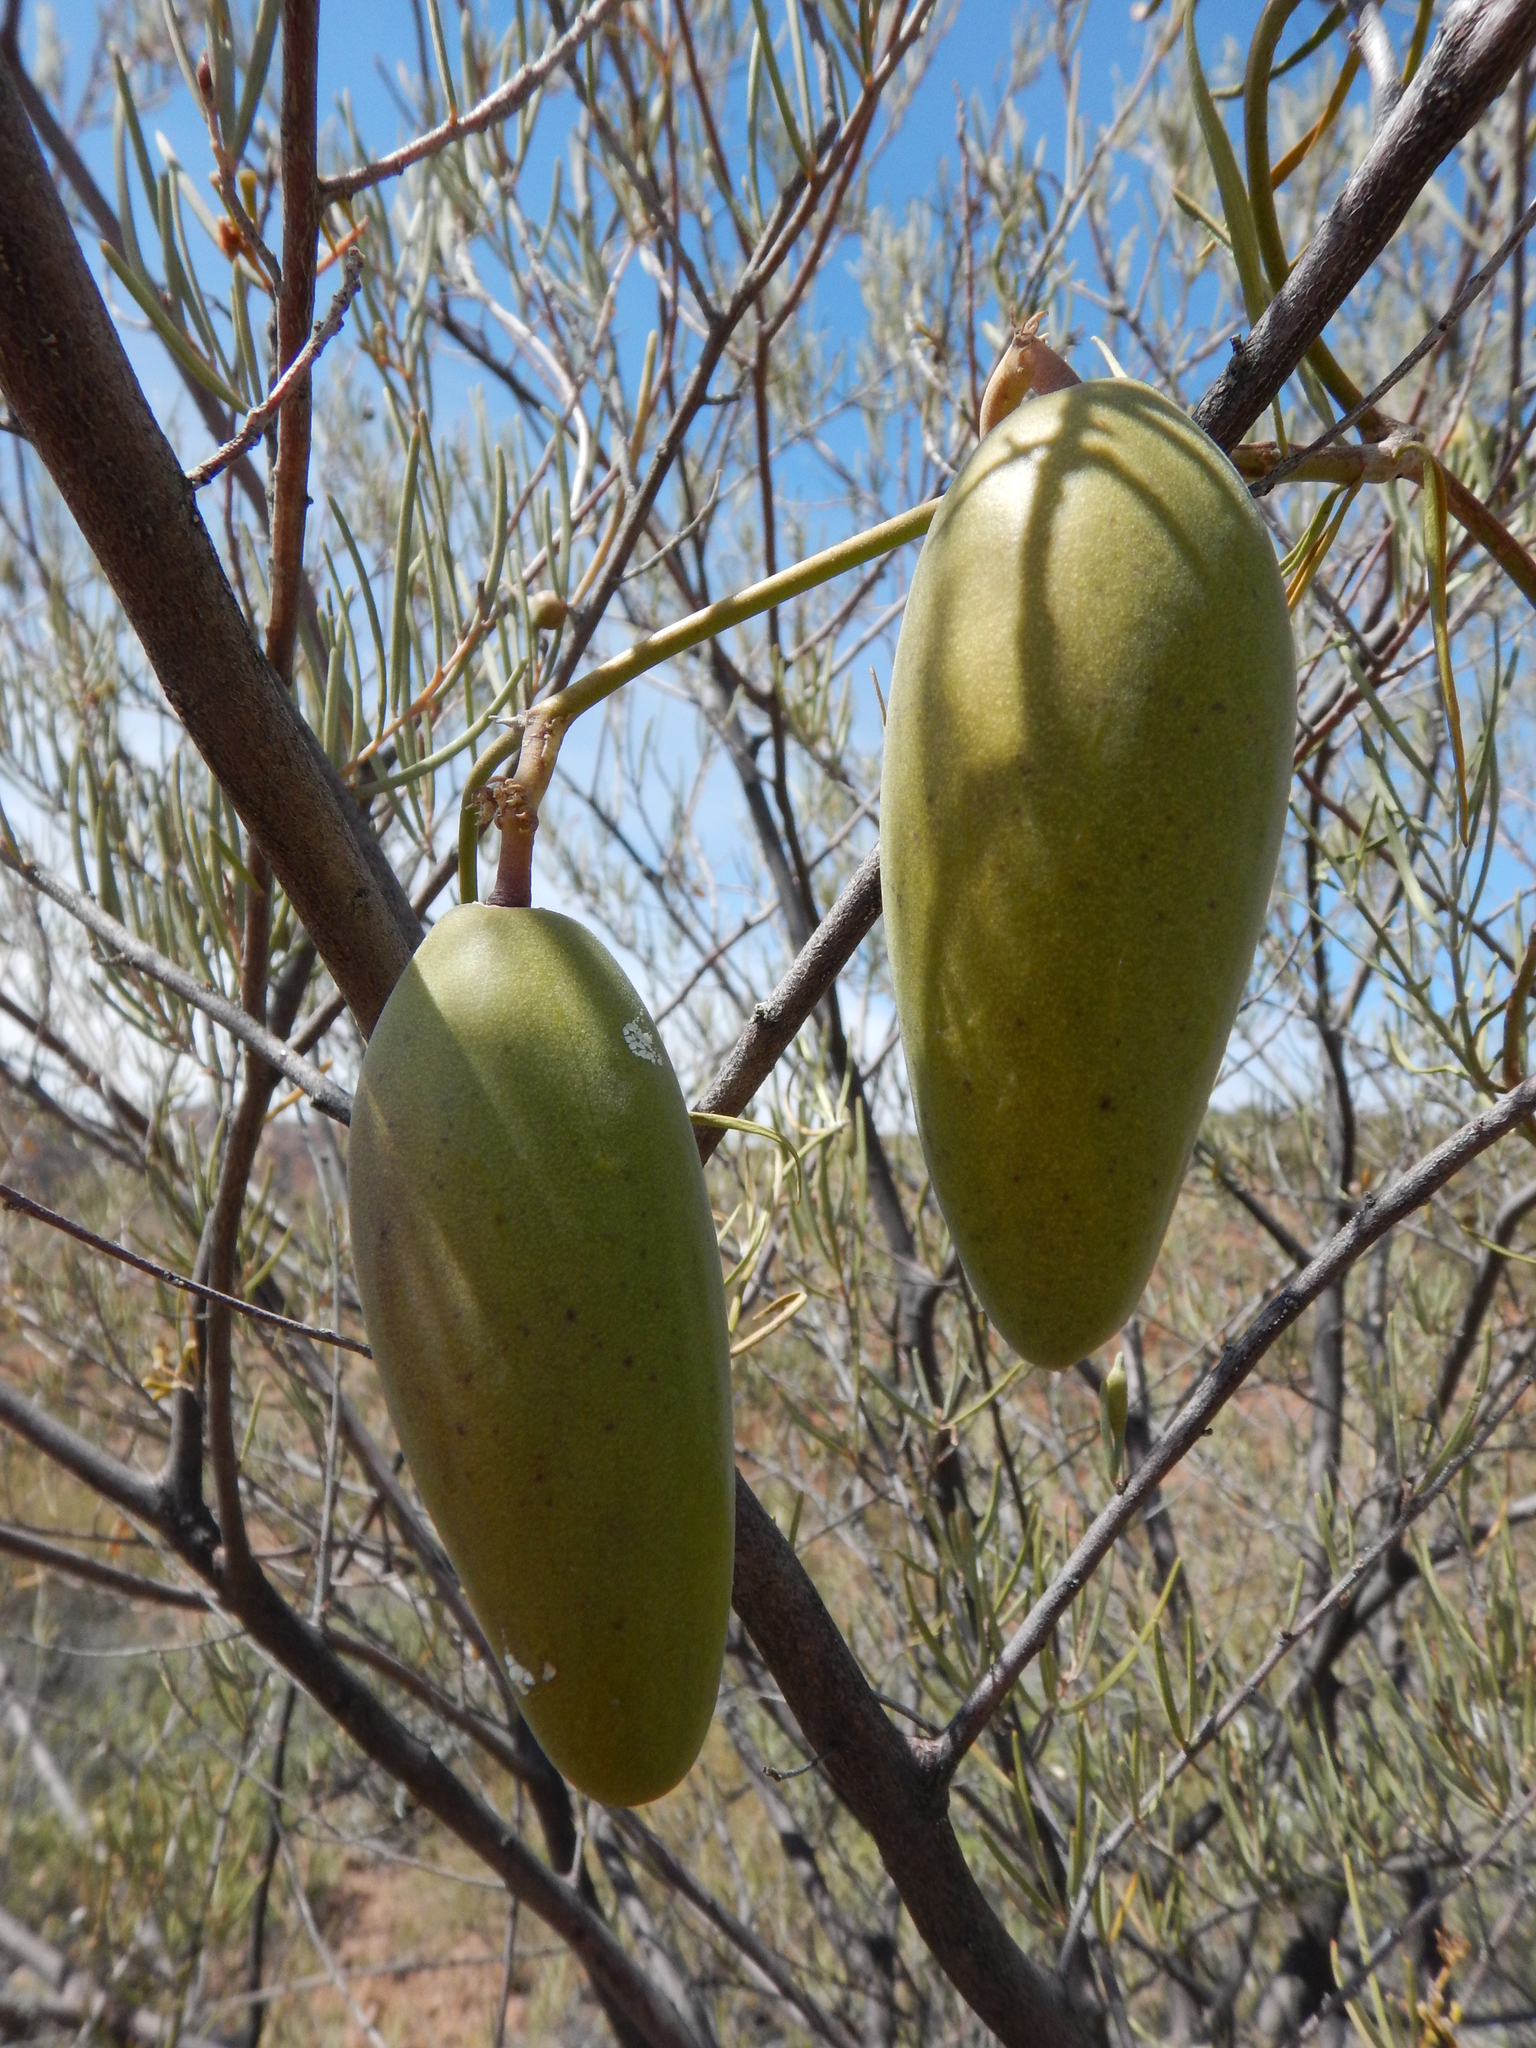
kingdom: Plantae
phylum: Tracheophyta
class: Magnoliopsida
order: Gentianales
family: Apocynaceae
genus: Leichhardtia
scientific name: Leichhardtia australis
